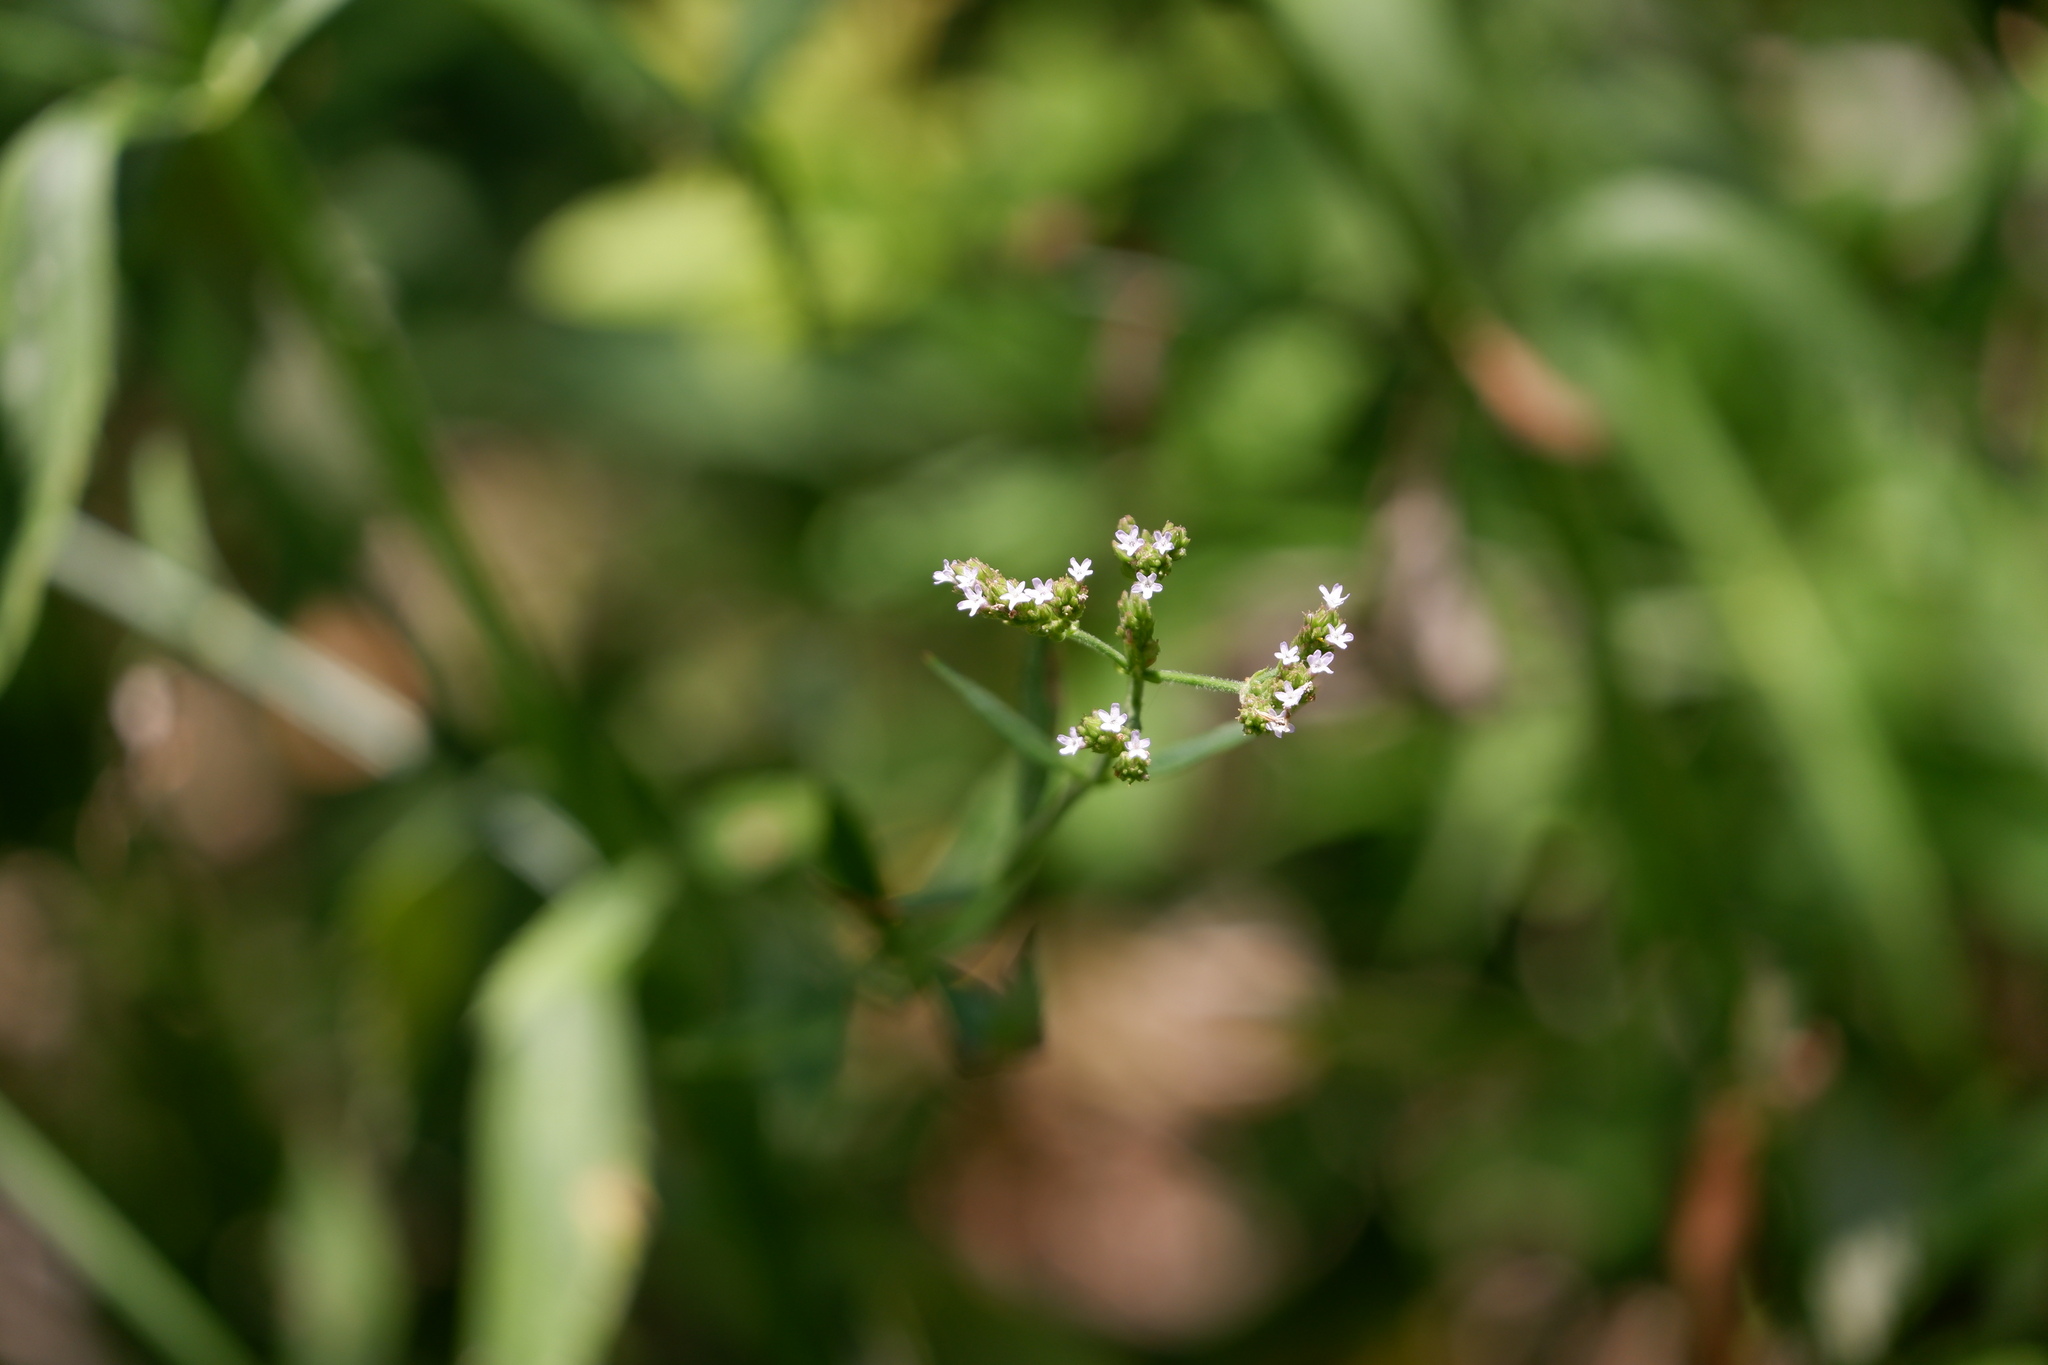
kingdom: Plantae
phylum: Tracheophyta
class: Magnoliopsida
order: Lamiales
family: Verbenaceae
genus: Verbena
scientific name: Verbena brasiliensis
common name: Brazilian vervain
